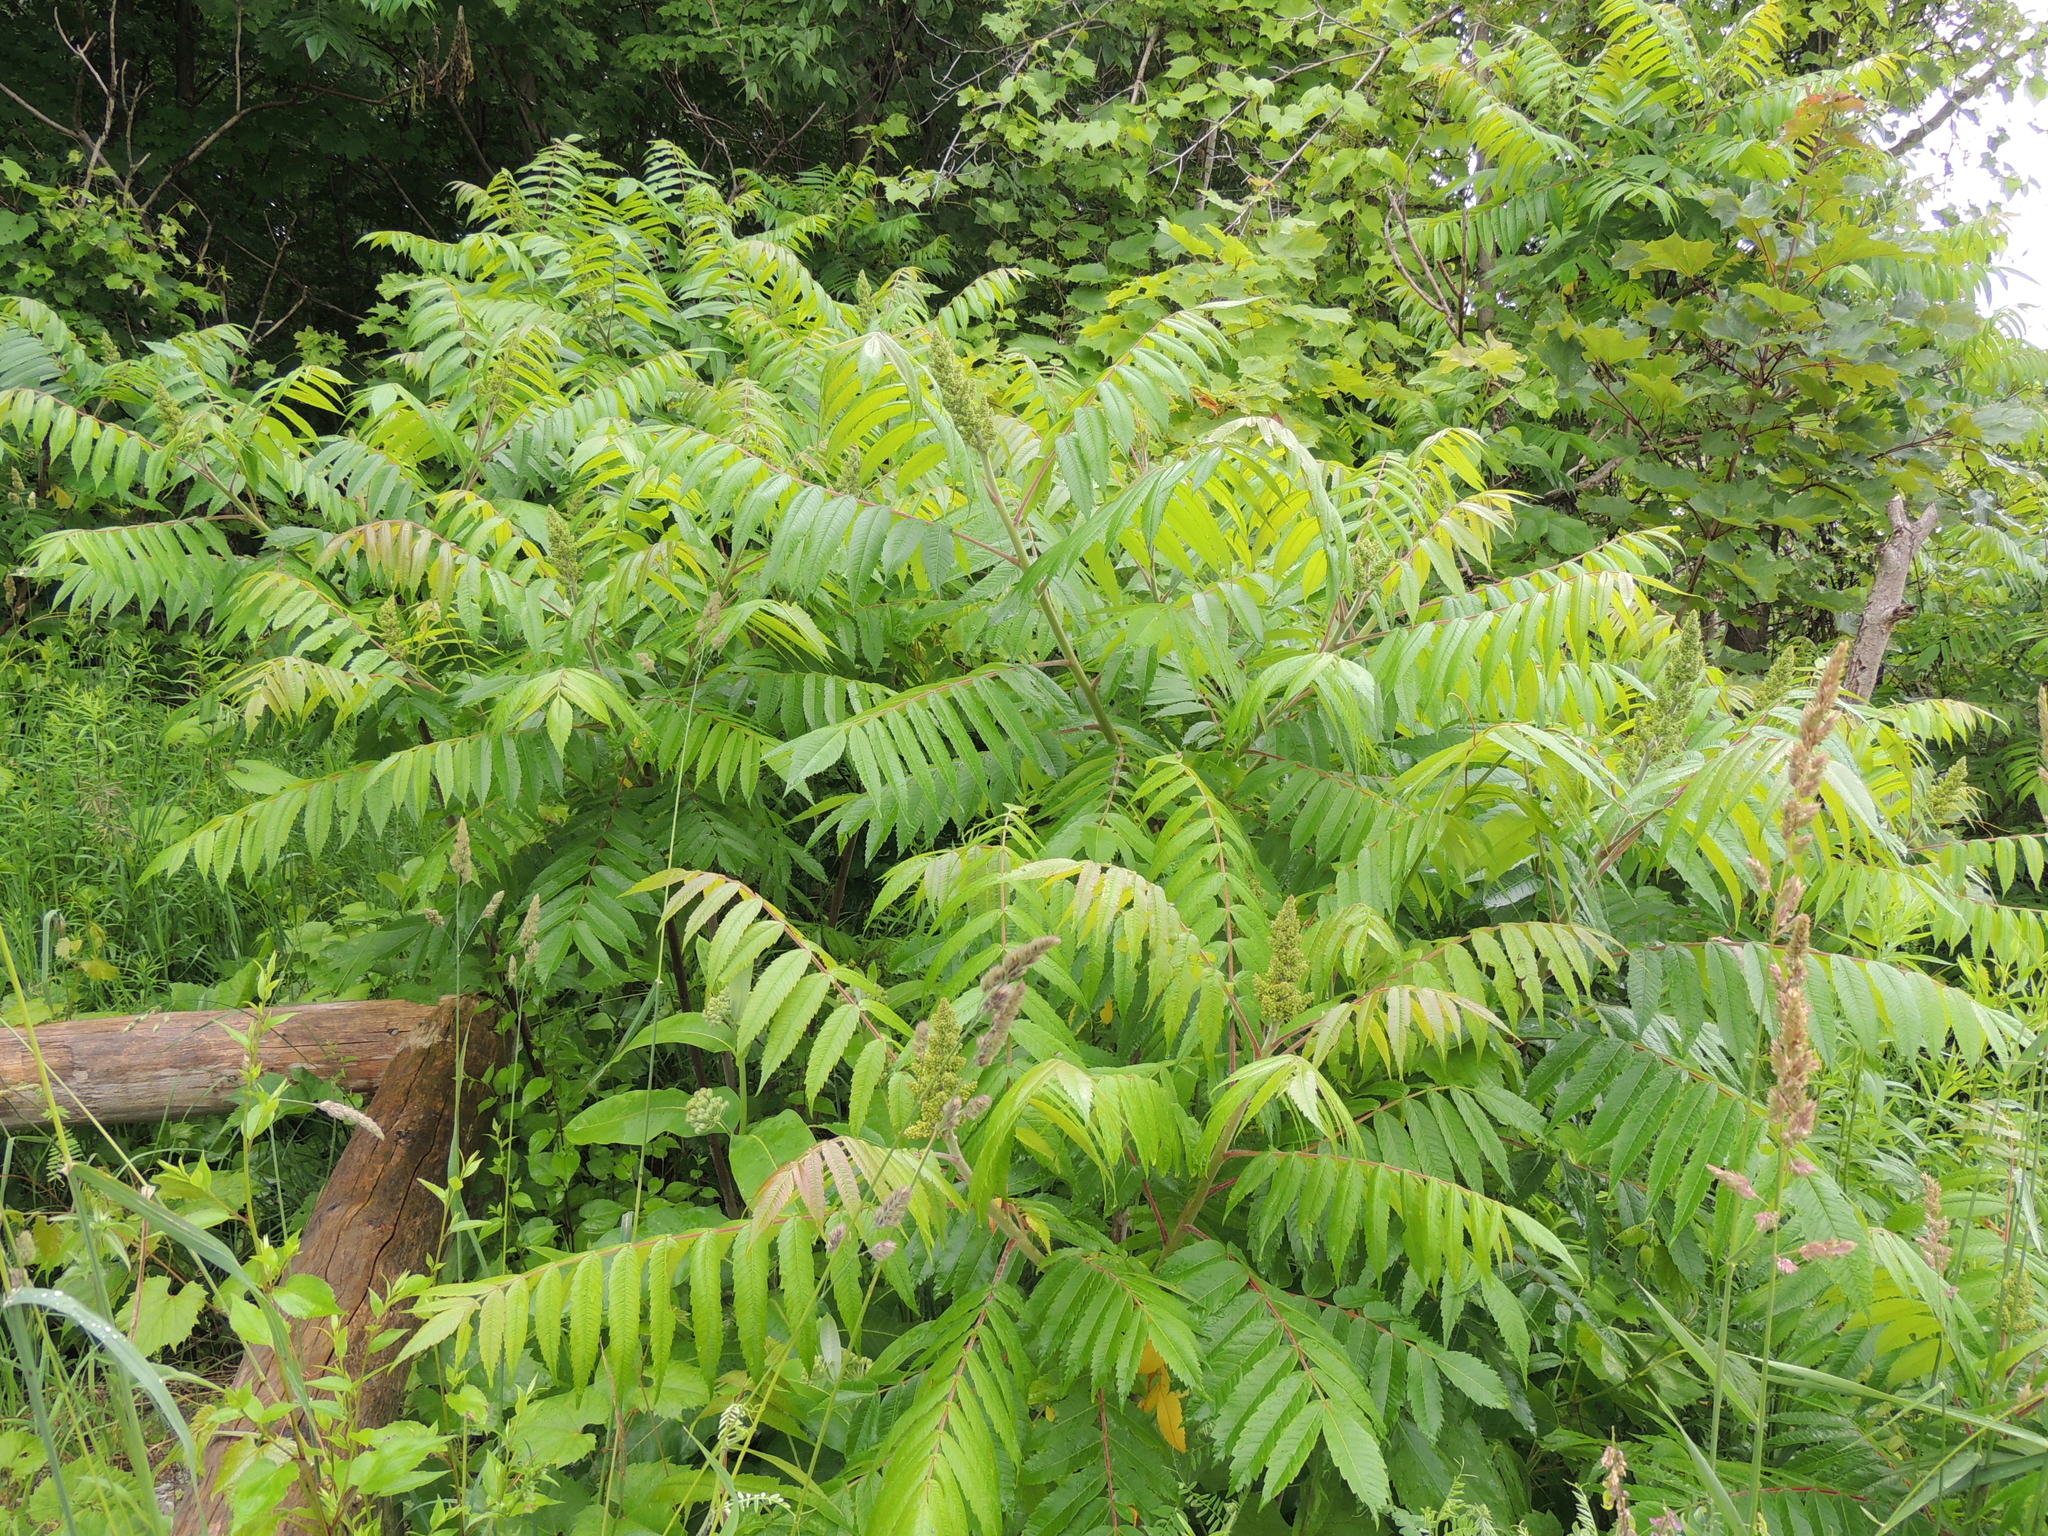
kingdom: Plantae
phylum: Tracheophyta
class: Magnoliopsida
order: Sapindales
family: Anacardiaceae
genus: Rhus
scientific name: Rhus typhina
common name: Staghorn sumac
